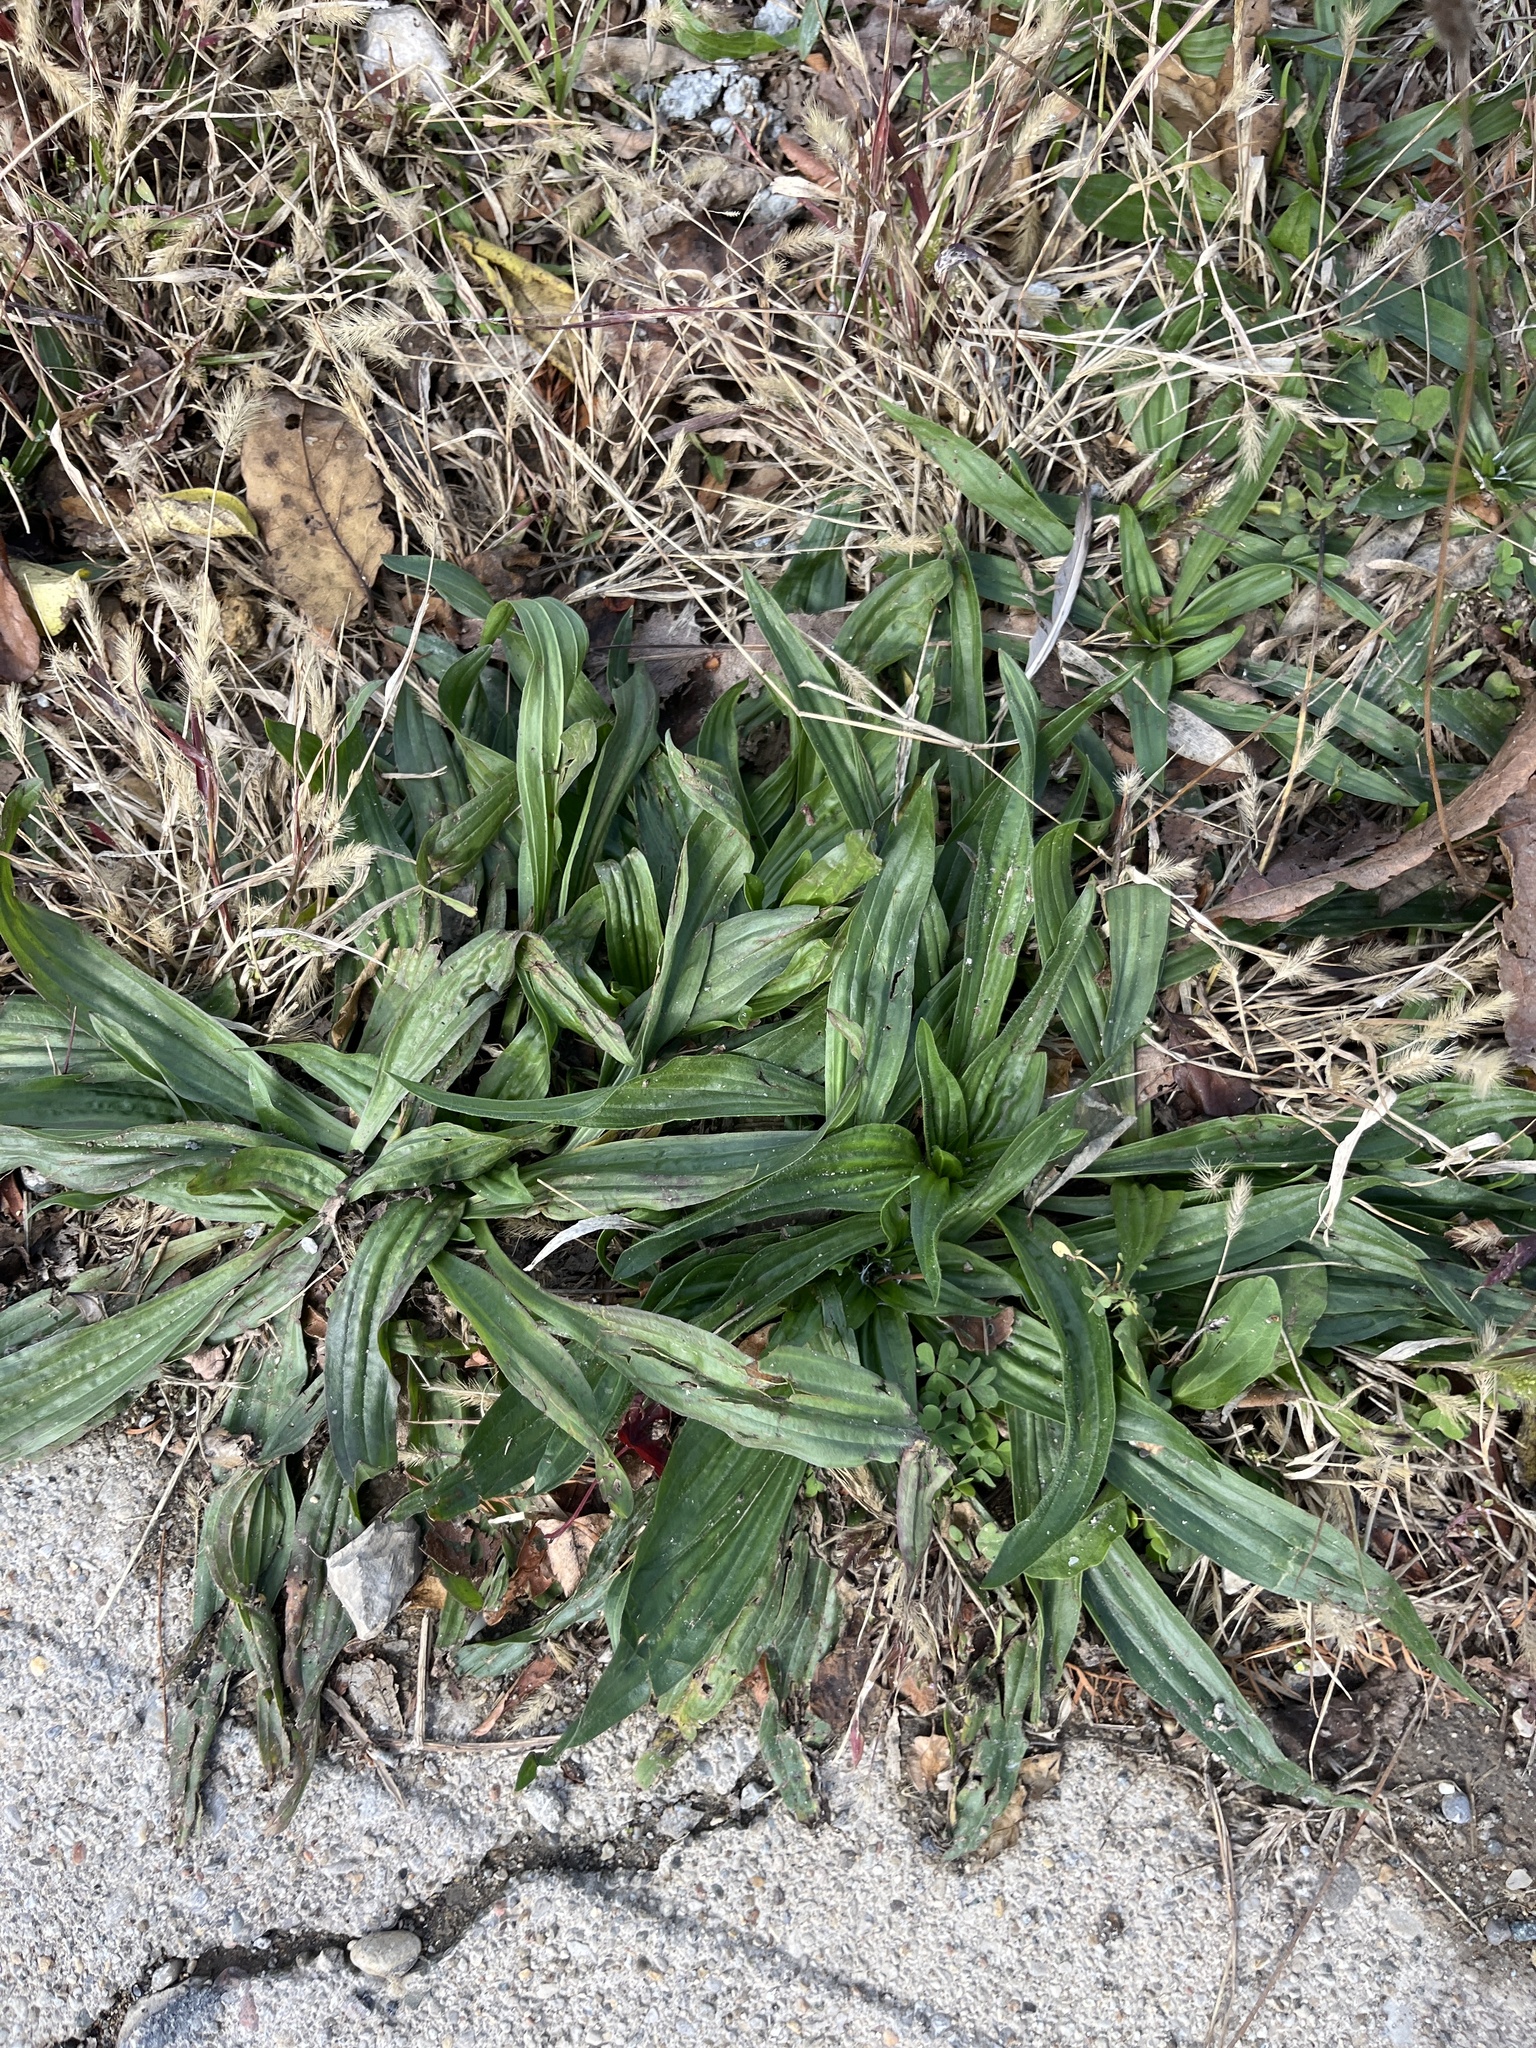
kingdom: Plantae
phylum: Tracheophyta
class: Magnoliopsida
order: Lamiales
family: Plantaginaceae
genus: Plantago
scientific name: Plantago lanceolata
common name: Ribwort plantain
